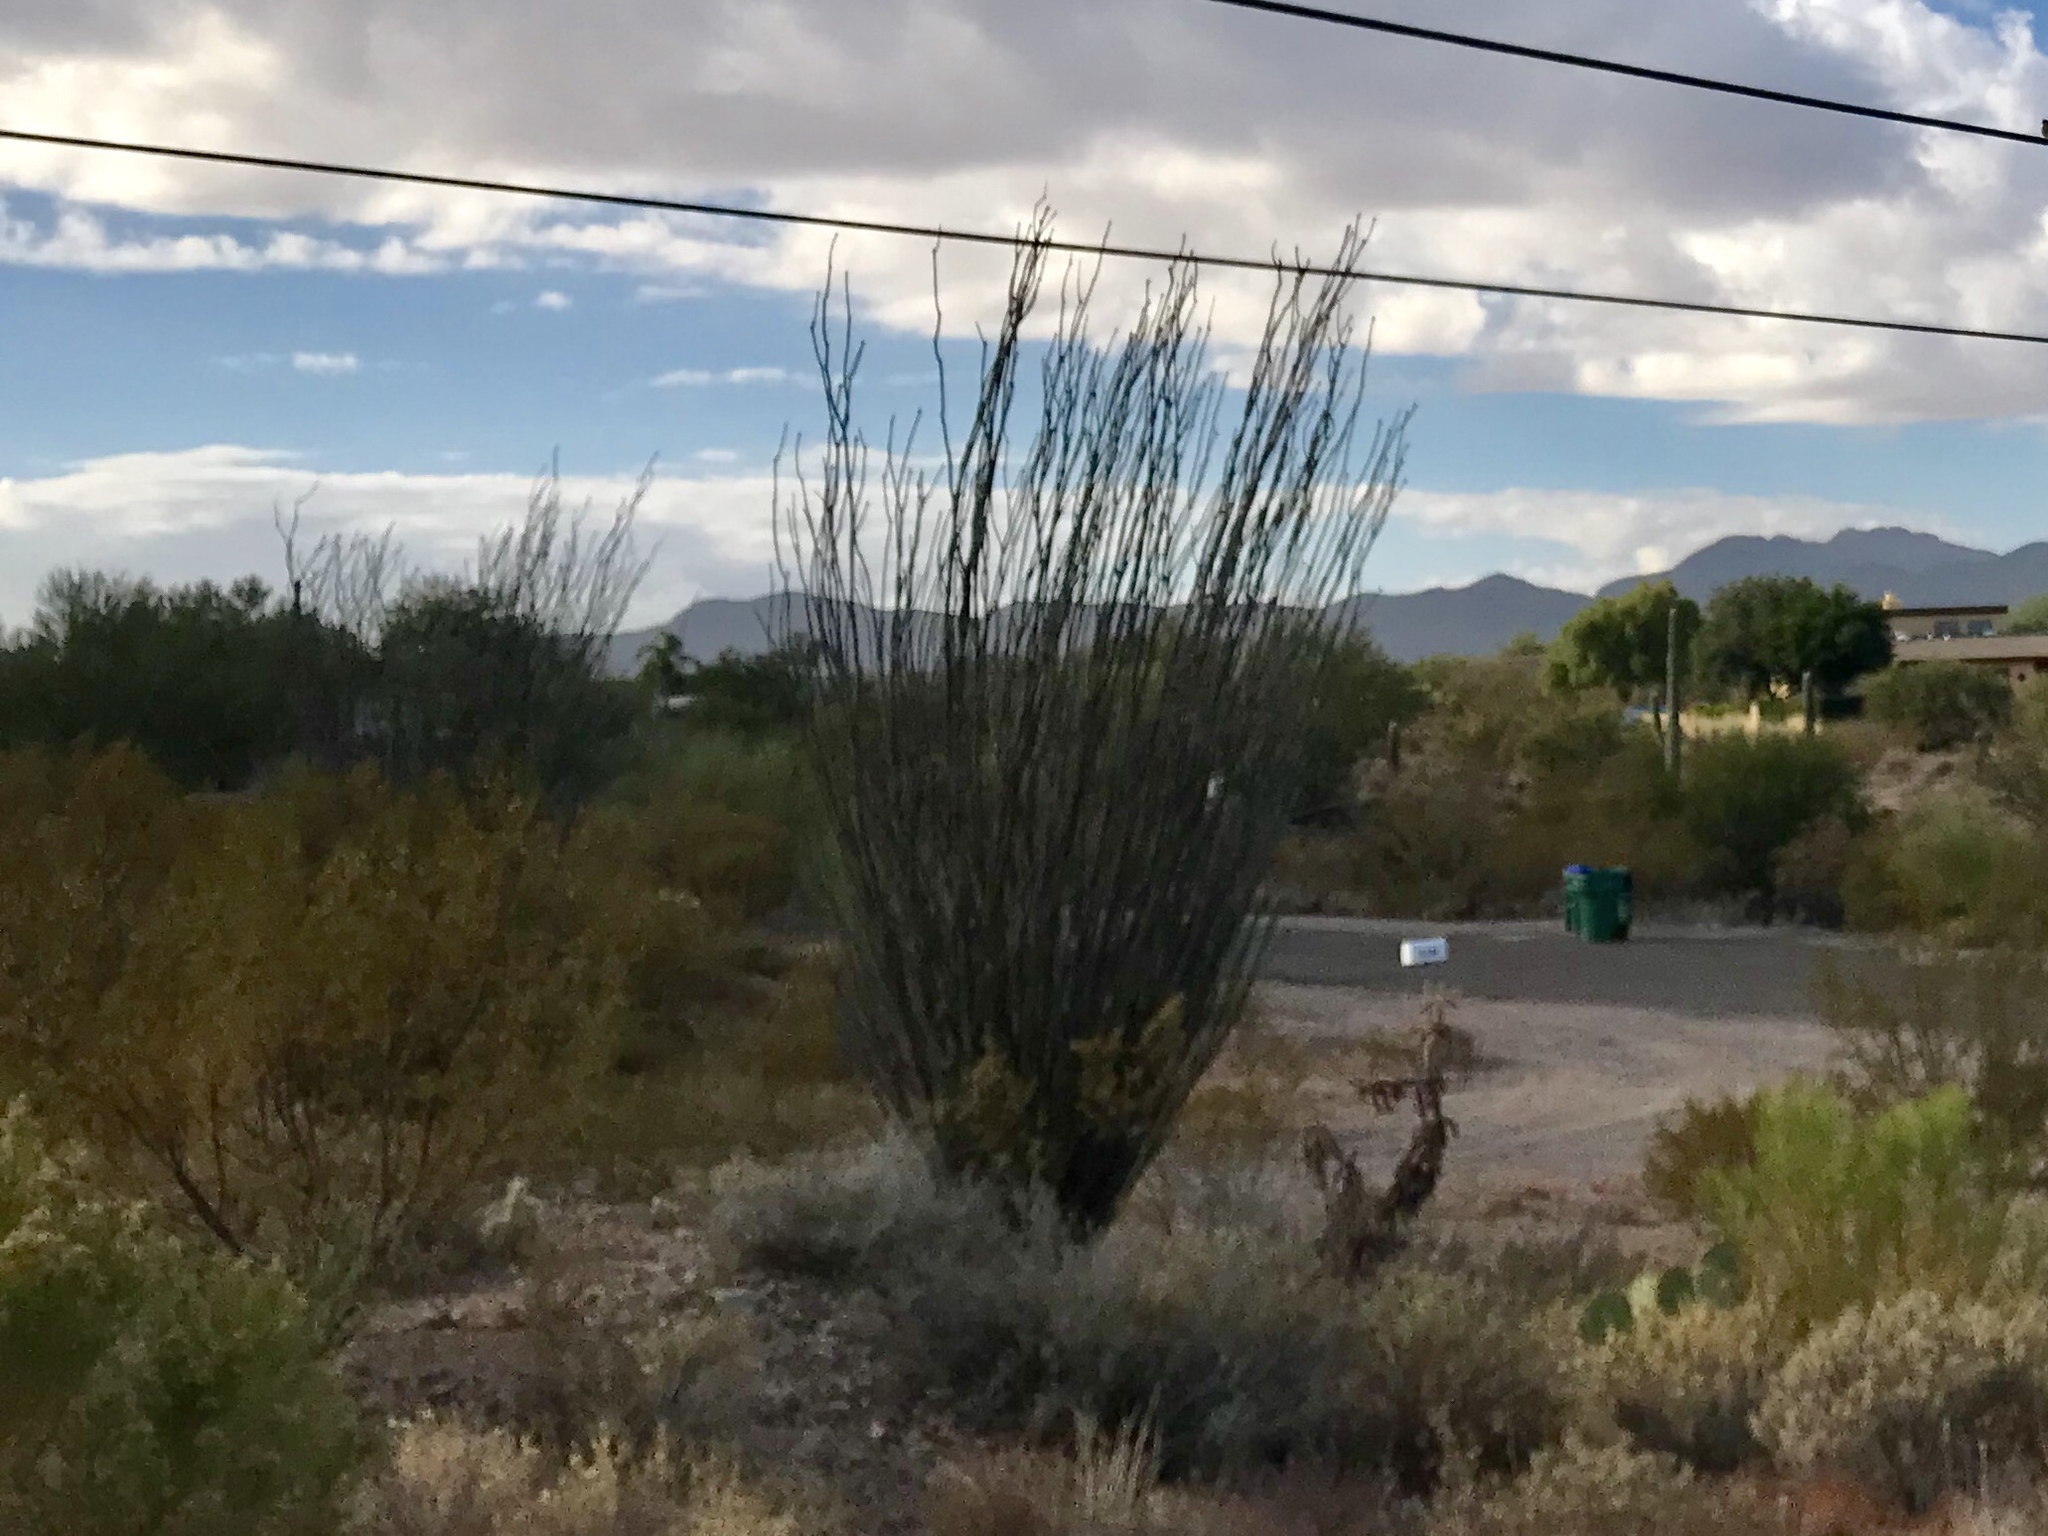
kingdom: Plantae
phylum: Tracheophyta
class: Magnoliopsida
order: Ericales
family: Fouquieriaceae
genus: Fouquieria
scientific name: Fouquieria splendens
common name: Vine-cactus
